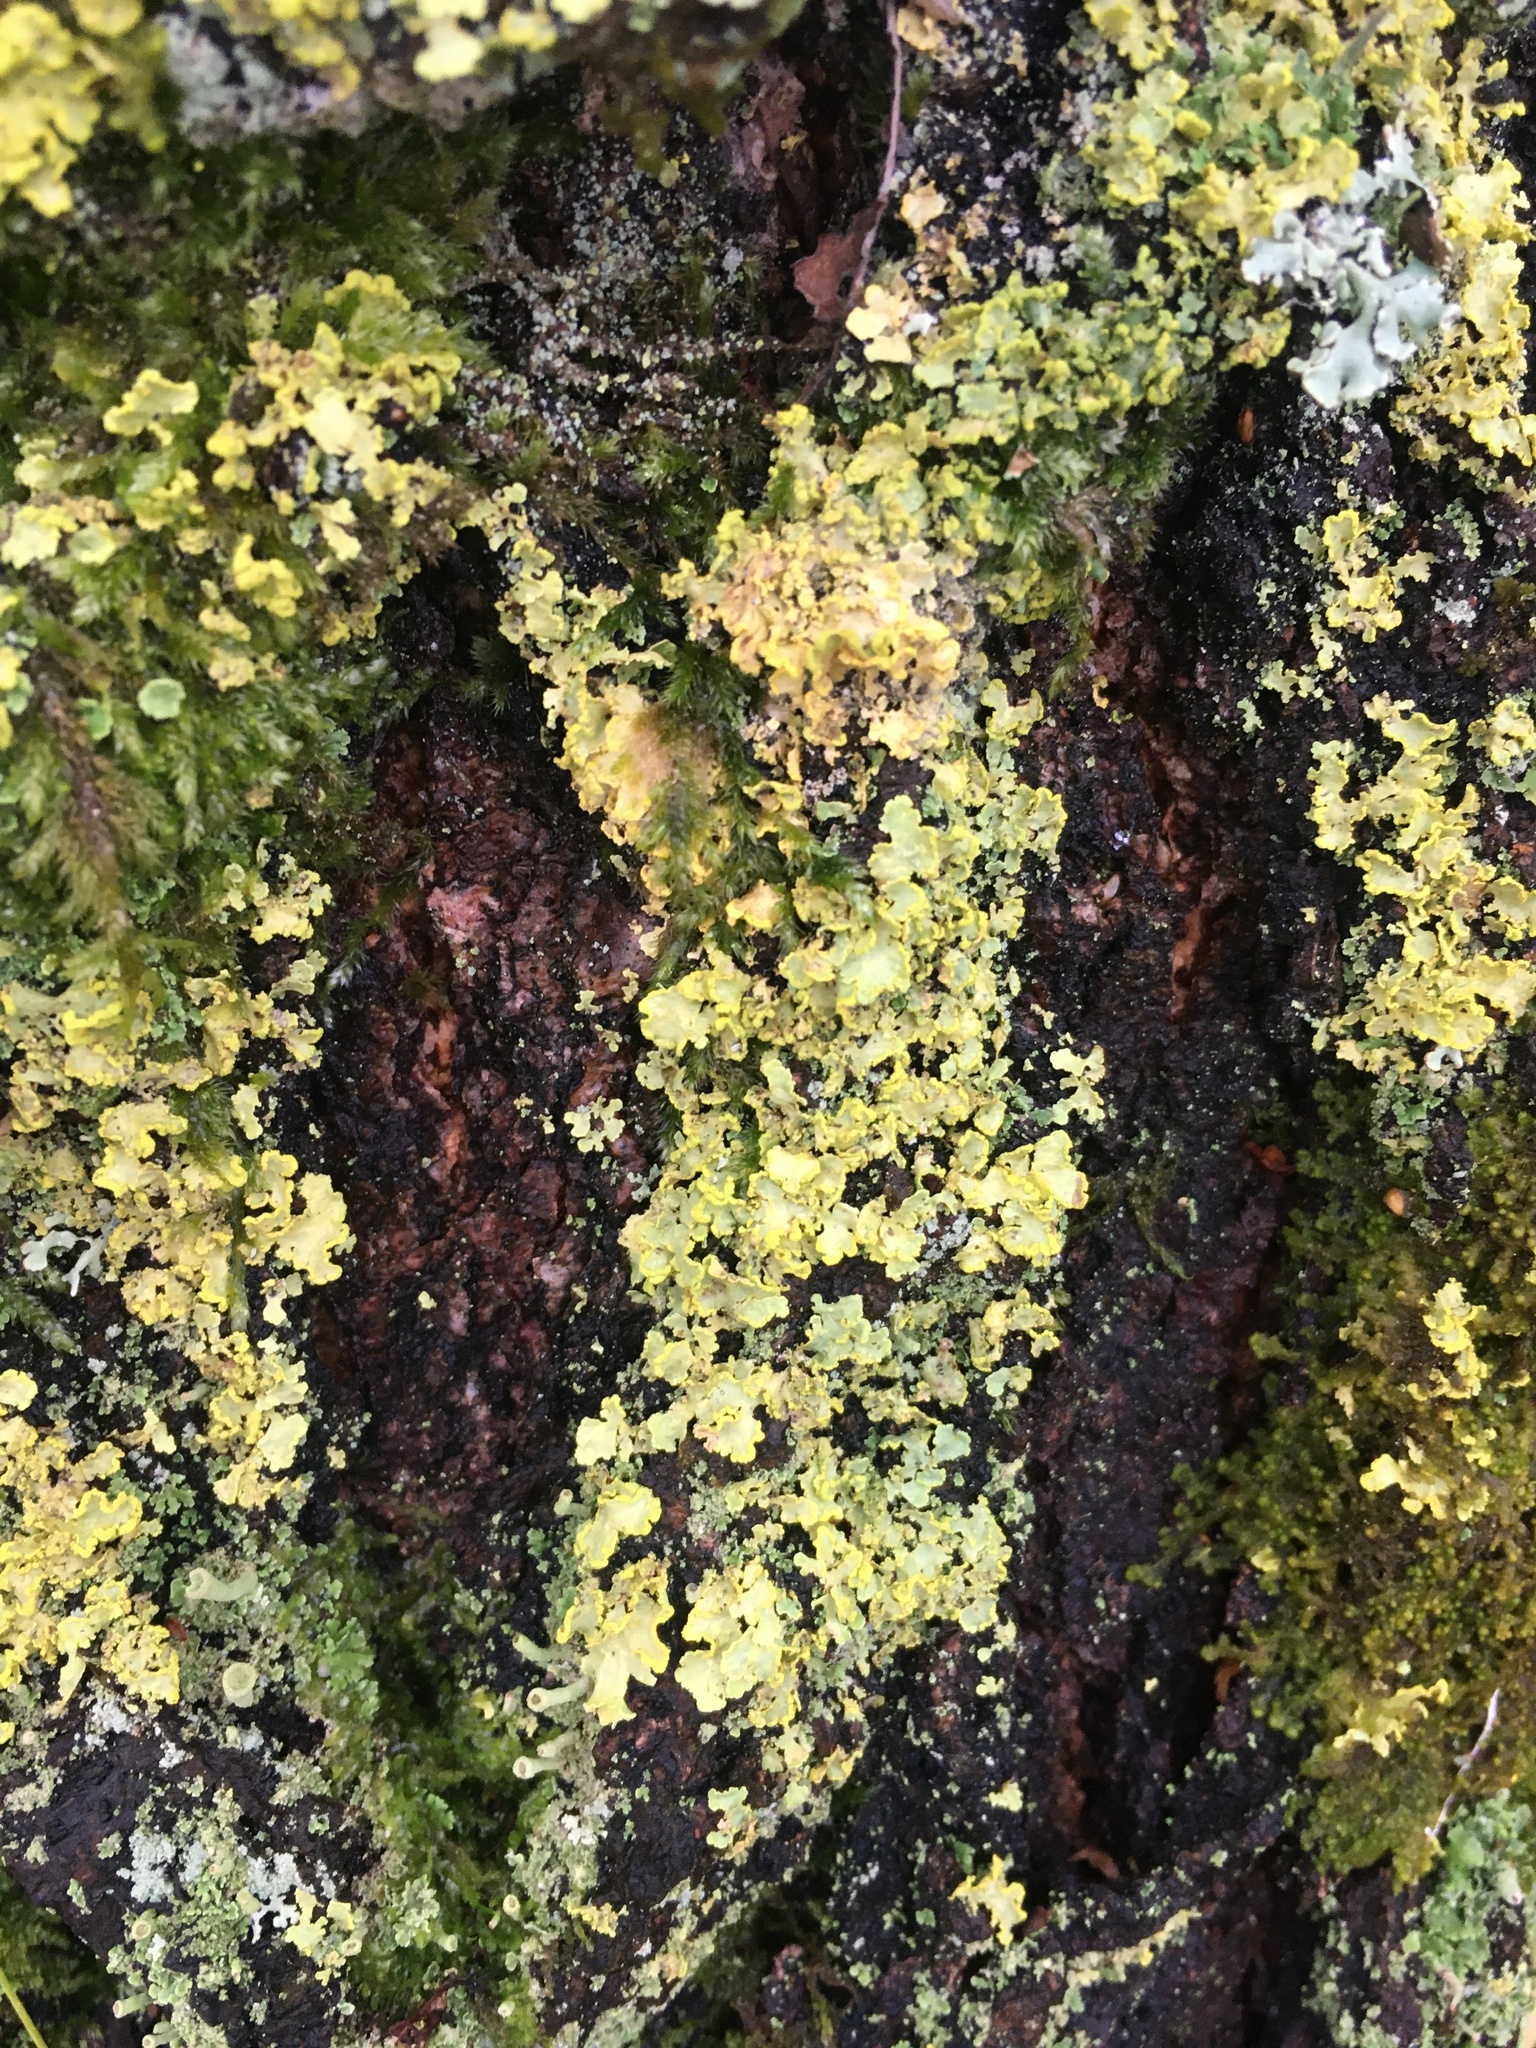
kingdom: Fungi
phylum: Ascomycota
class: Lecanoromycetes
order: Lecanorales
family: Parmeliaceae
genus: Vulpicida
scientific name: Vulpicida pinastri
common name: Powdered sunshine lichen
